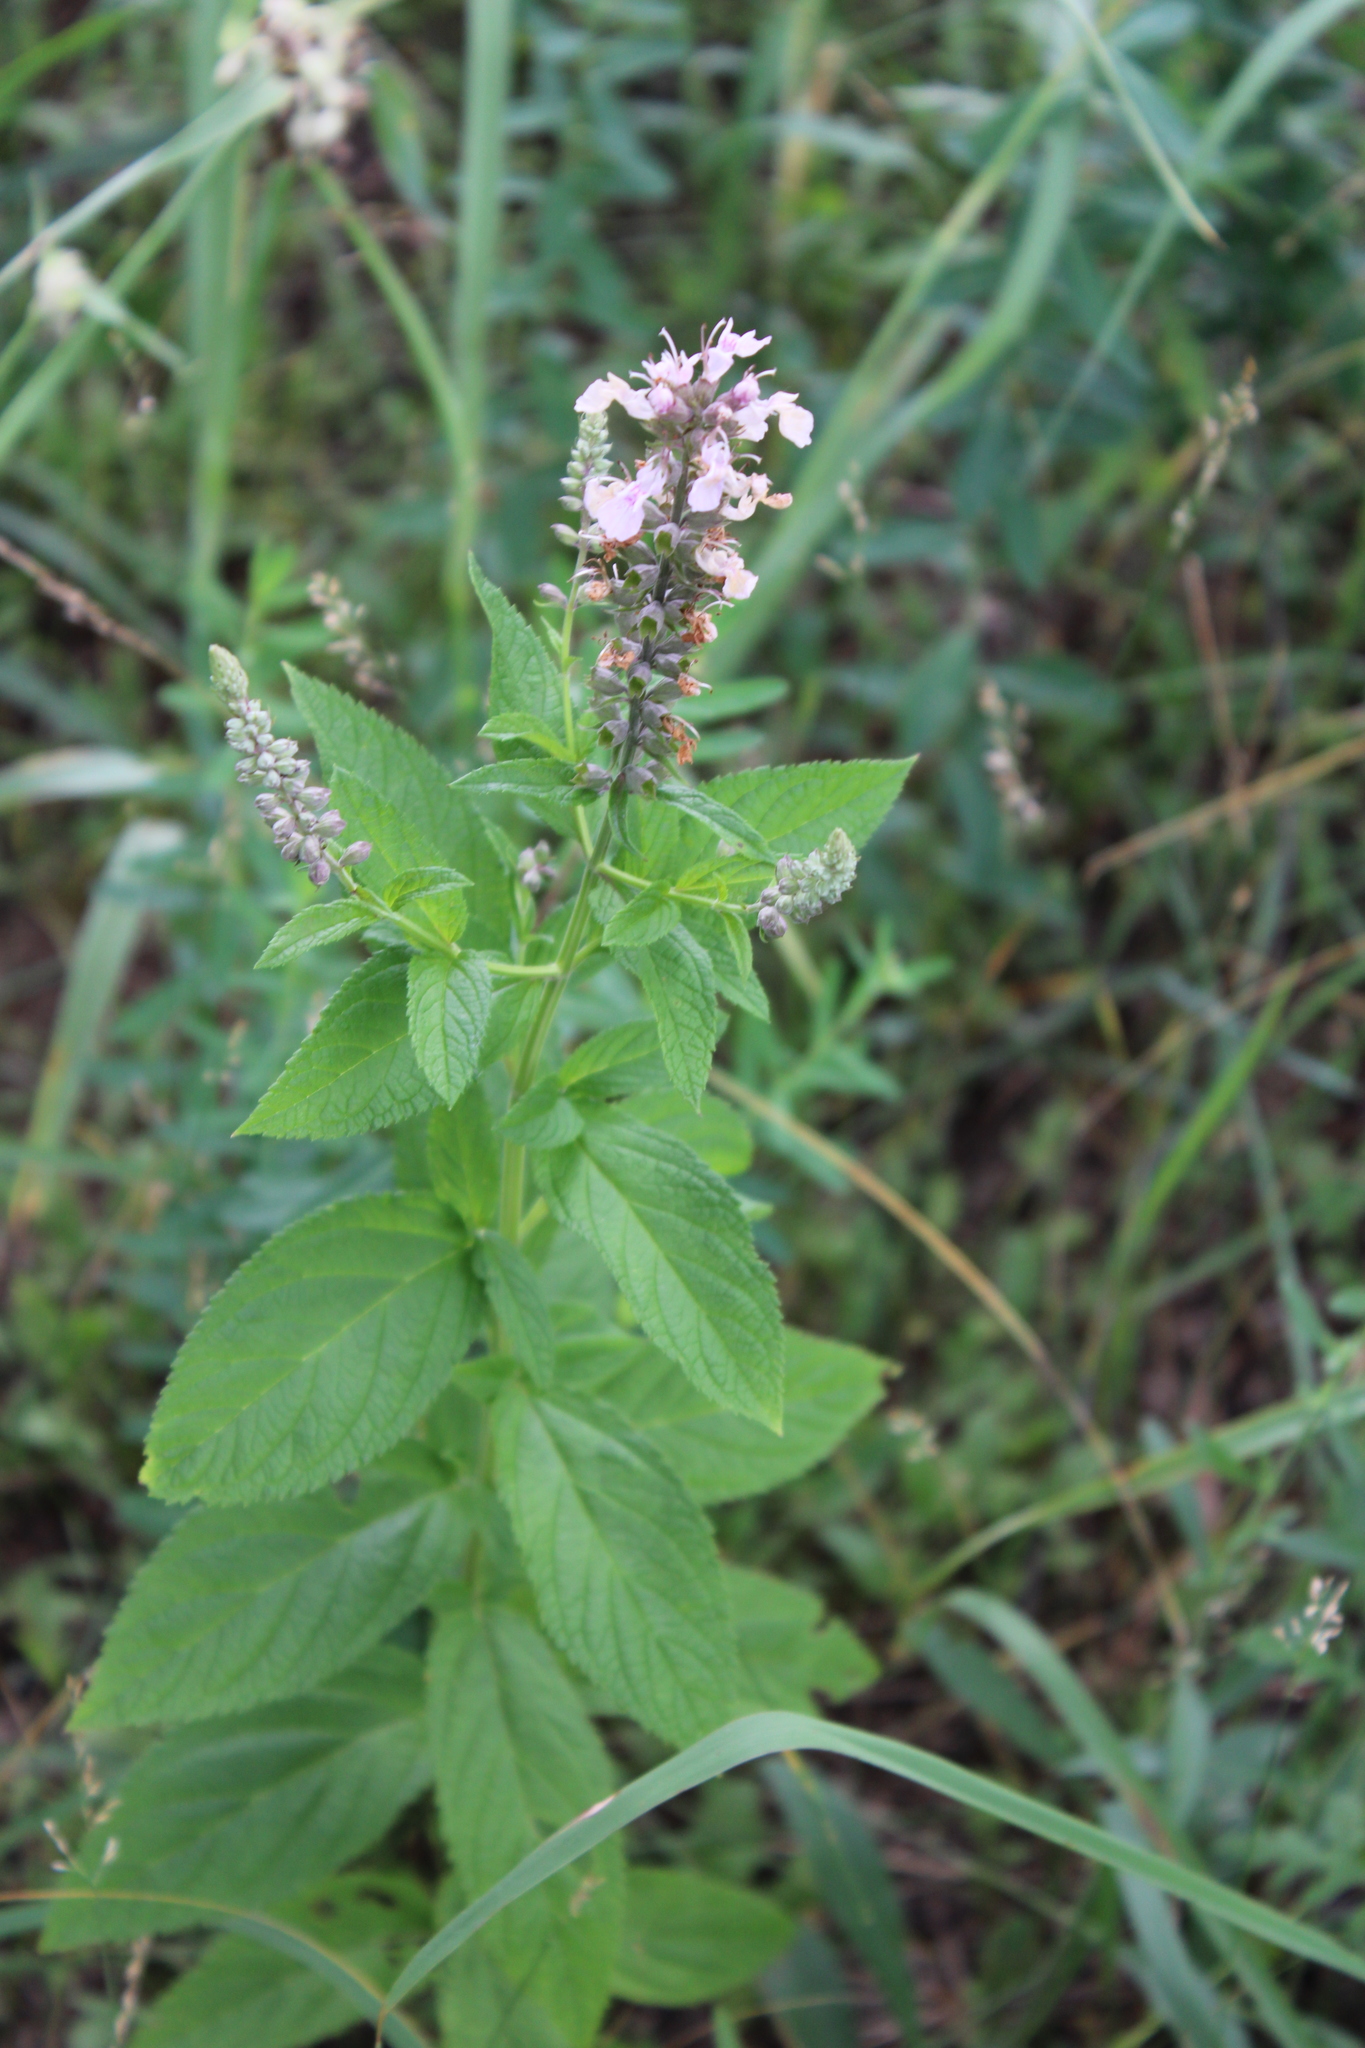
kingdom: Plantae
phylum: Tracheophyta
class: Magnoliopsida
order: Lamiales
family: Lamiaceae
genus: Teucrium
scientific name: Teucrium canadense
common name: American germander
